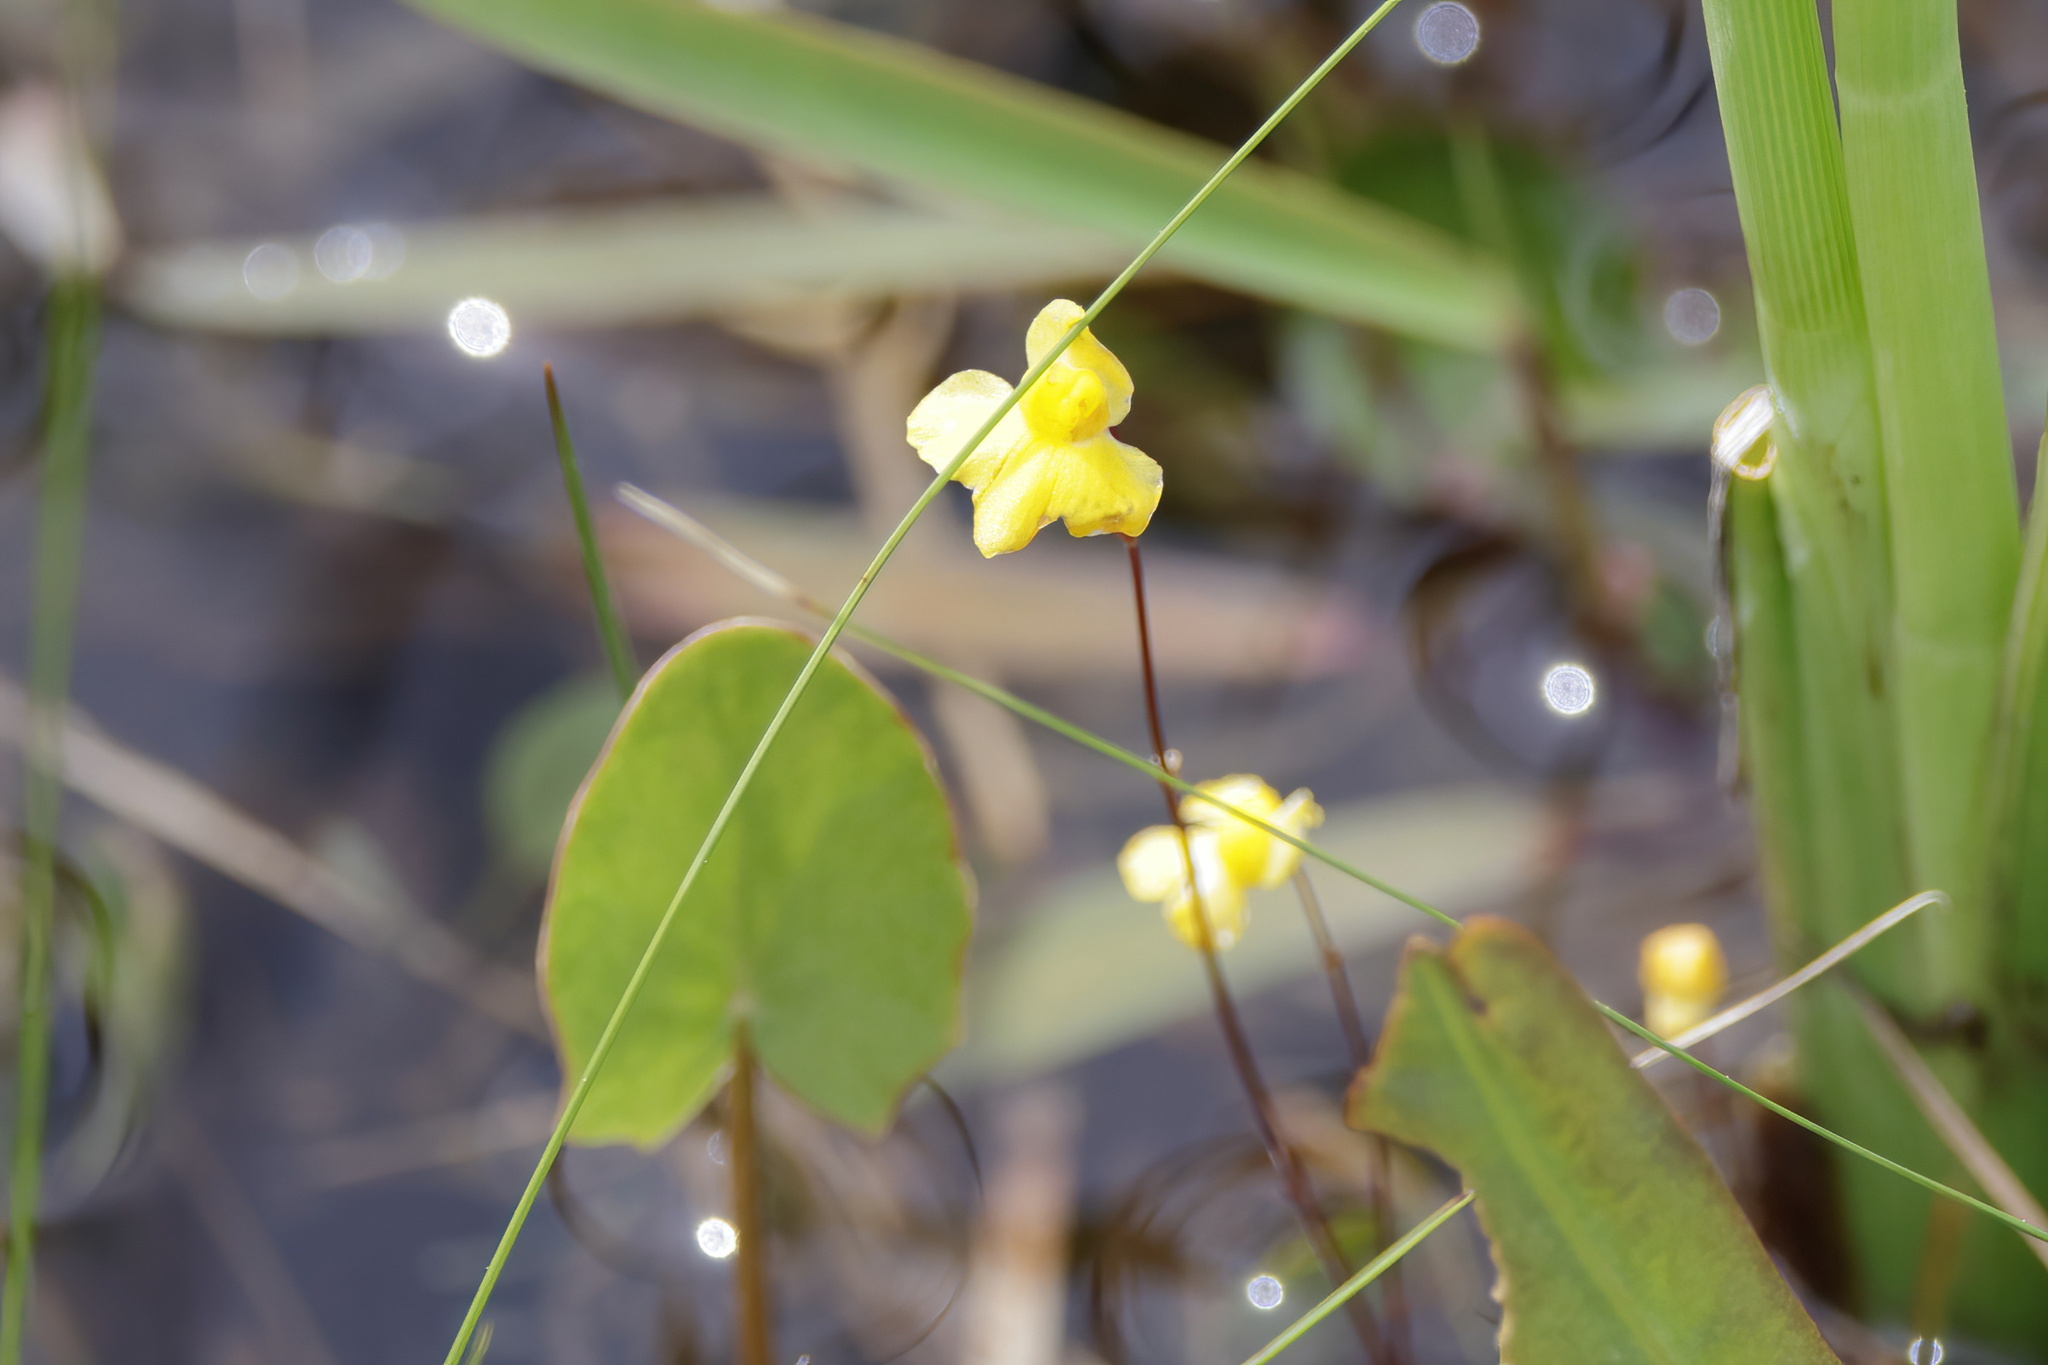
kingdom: Plantae
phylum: Tracheophyta
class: Magnoliopsida
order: Lamiales
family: Lentibulariaceae
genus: Utricularia
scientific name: Utricularia subulata
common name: Tiny bladderwort
